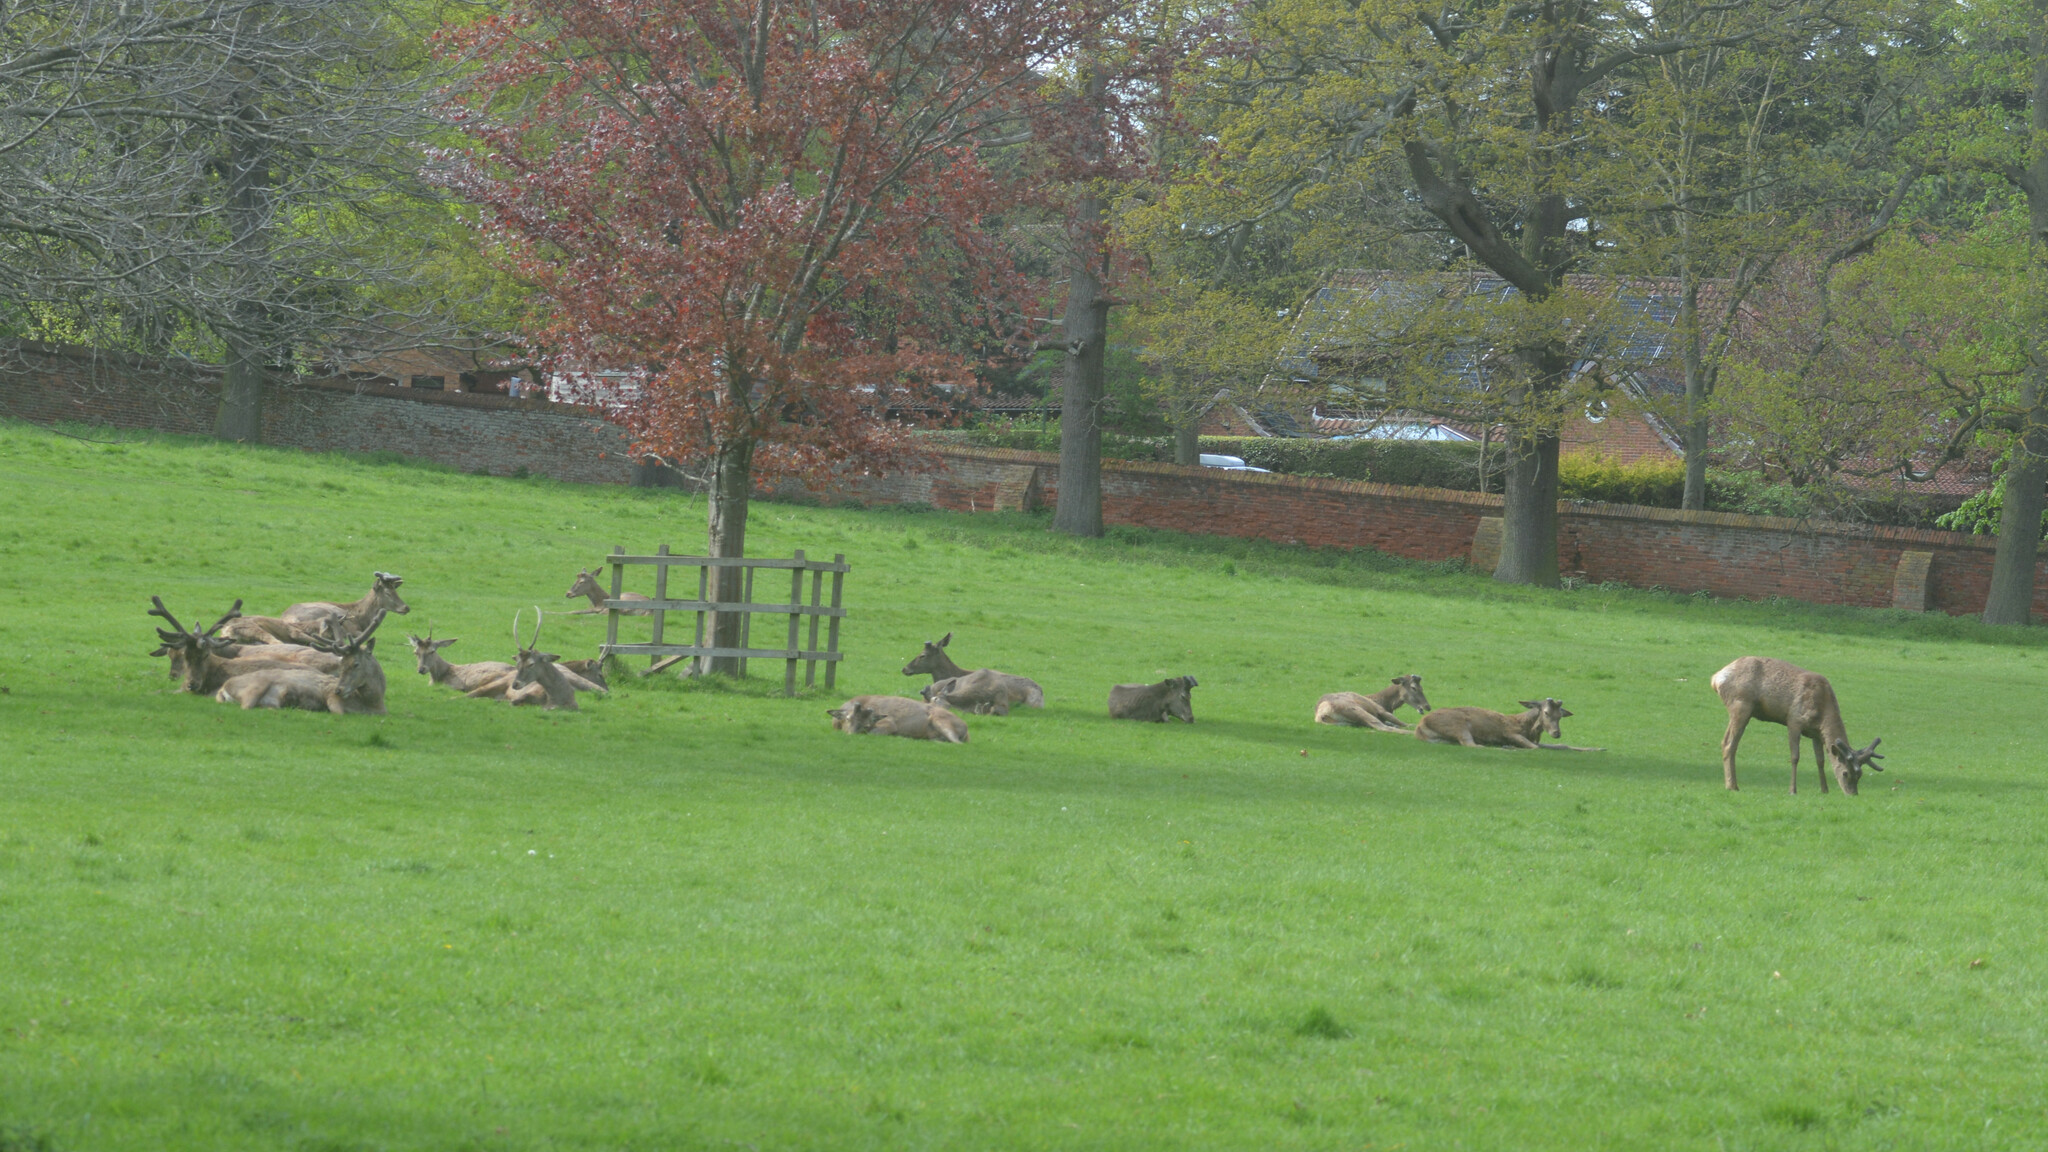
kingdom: Animalia
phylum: Chordata
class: Mammalia
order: Artiodactyla
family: Cervidae
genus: Cervus
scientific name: Cervus elaphus
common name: Red deer
